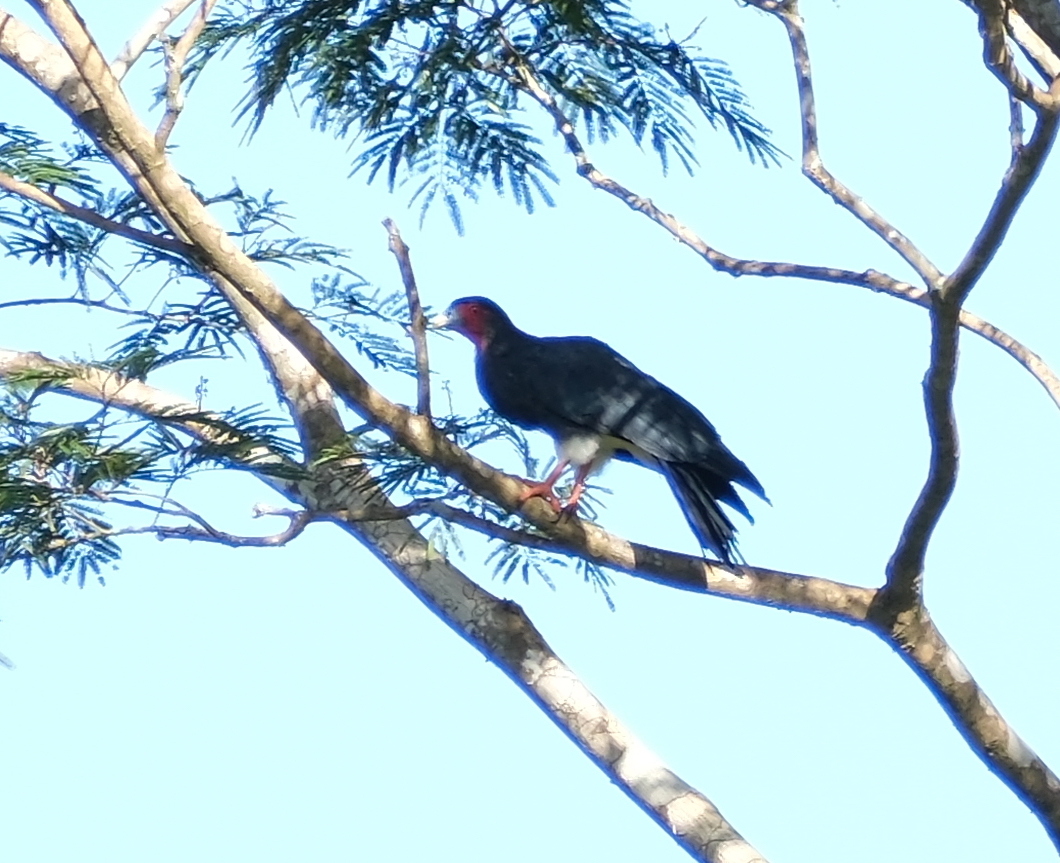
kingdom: Animalia
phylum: Chordata
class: Aves
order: Falconiformes
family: Falconidae
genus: Ibycter
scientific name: Ibycter americanus
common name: Red-throated caracara
